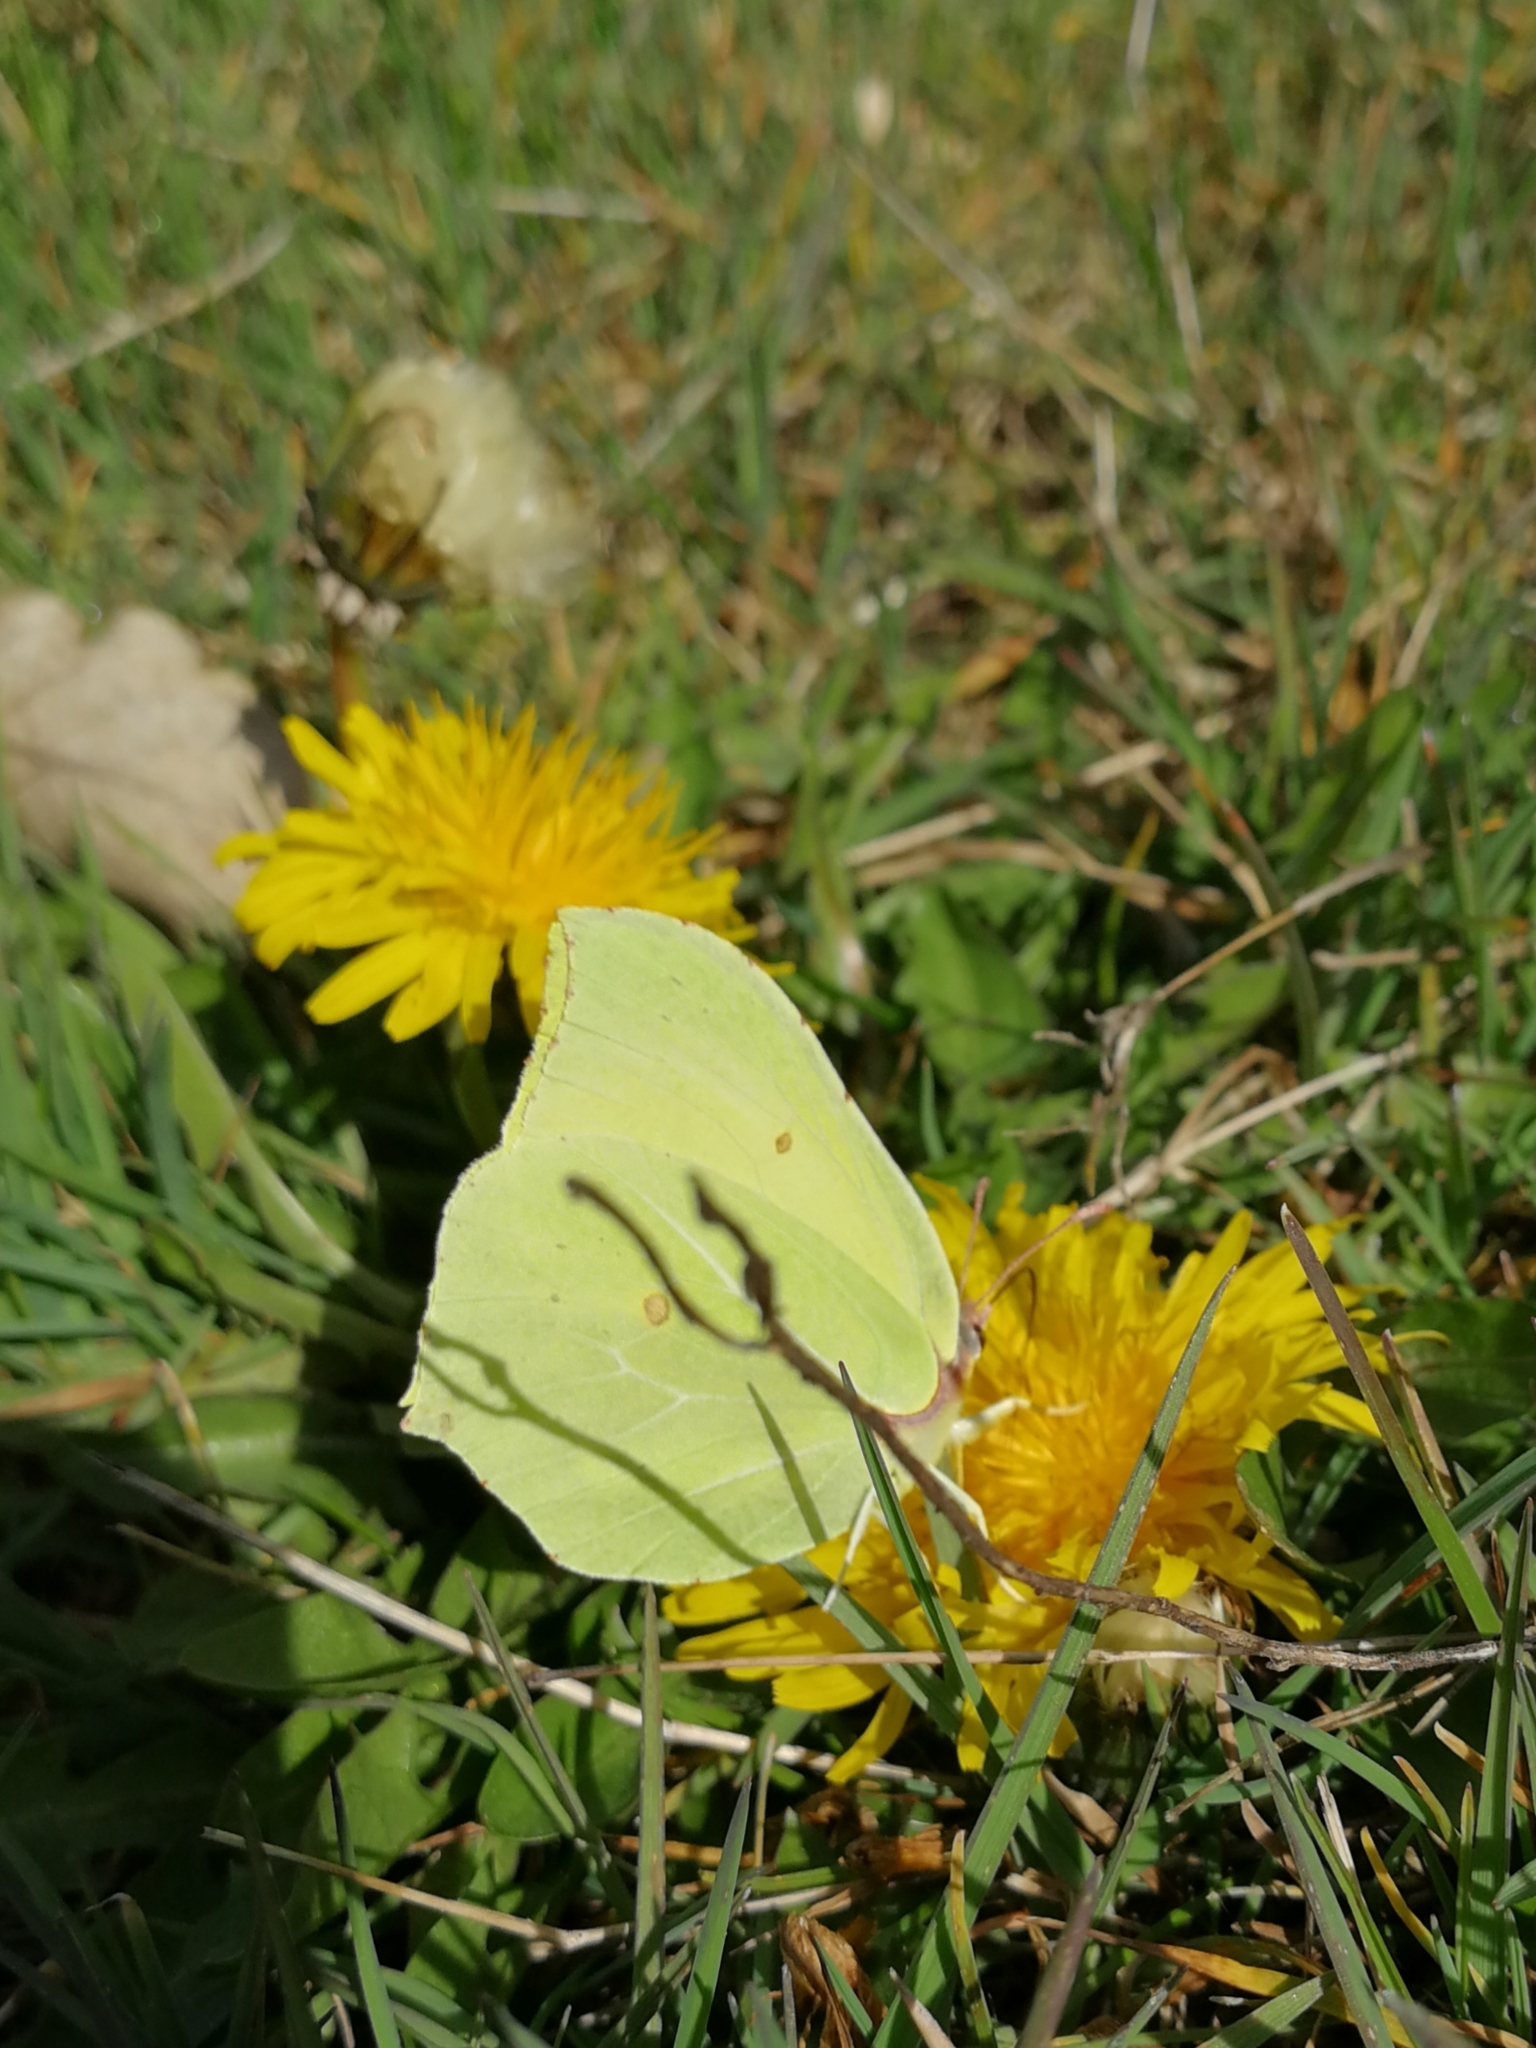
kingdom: Animalia
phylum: Arthropoda
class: Insecta
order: Lepidoptera
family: Pieridae
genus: Gonepteryx
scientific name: Gonepteryx rhamni
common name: Brimstone
